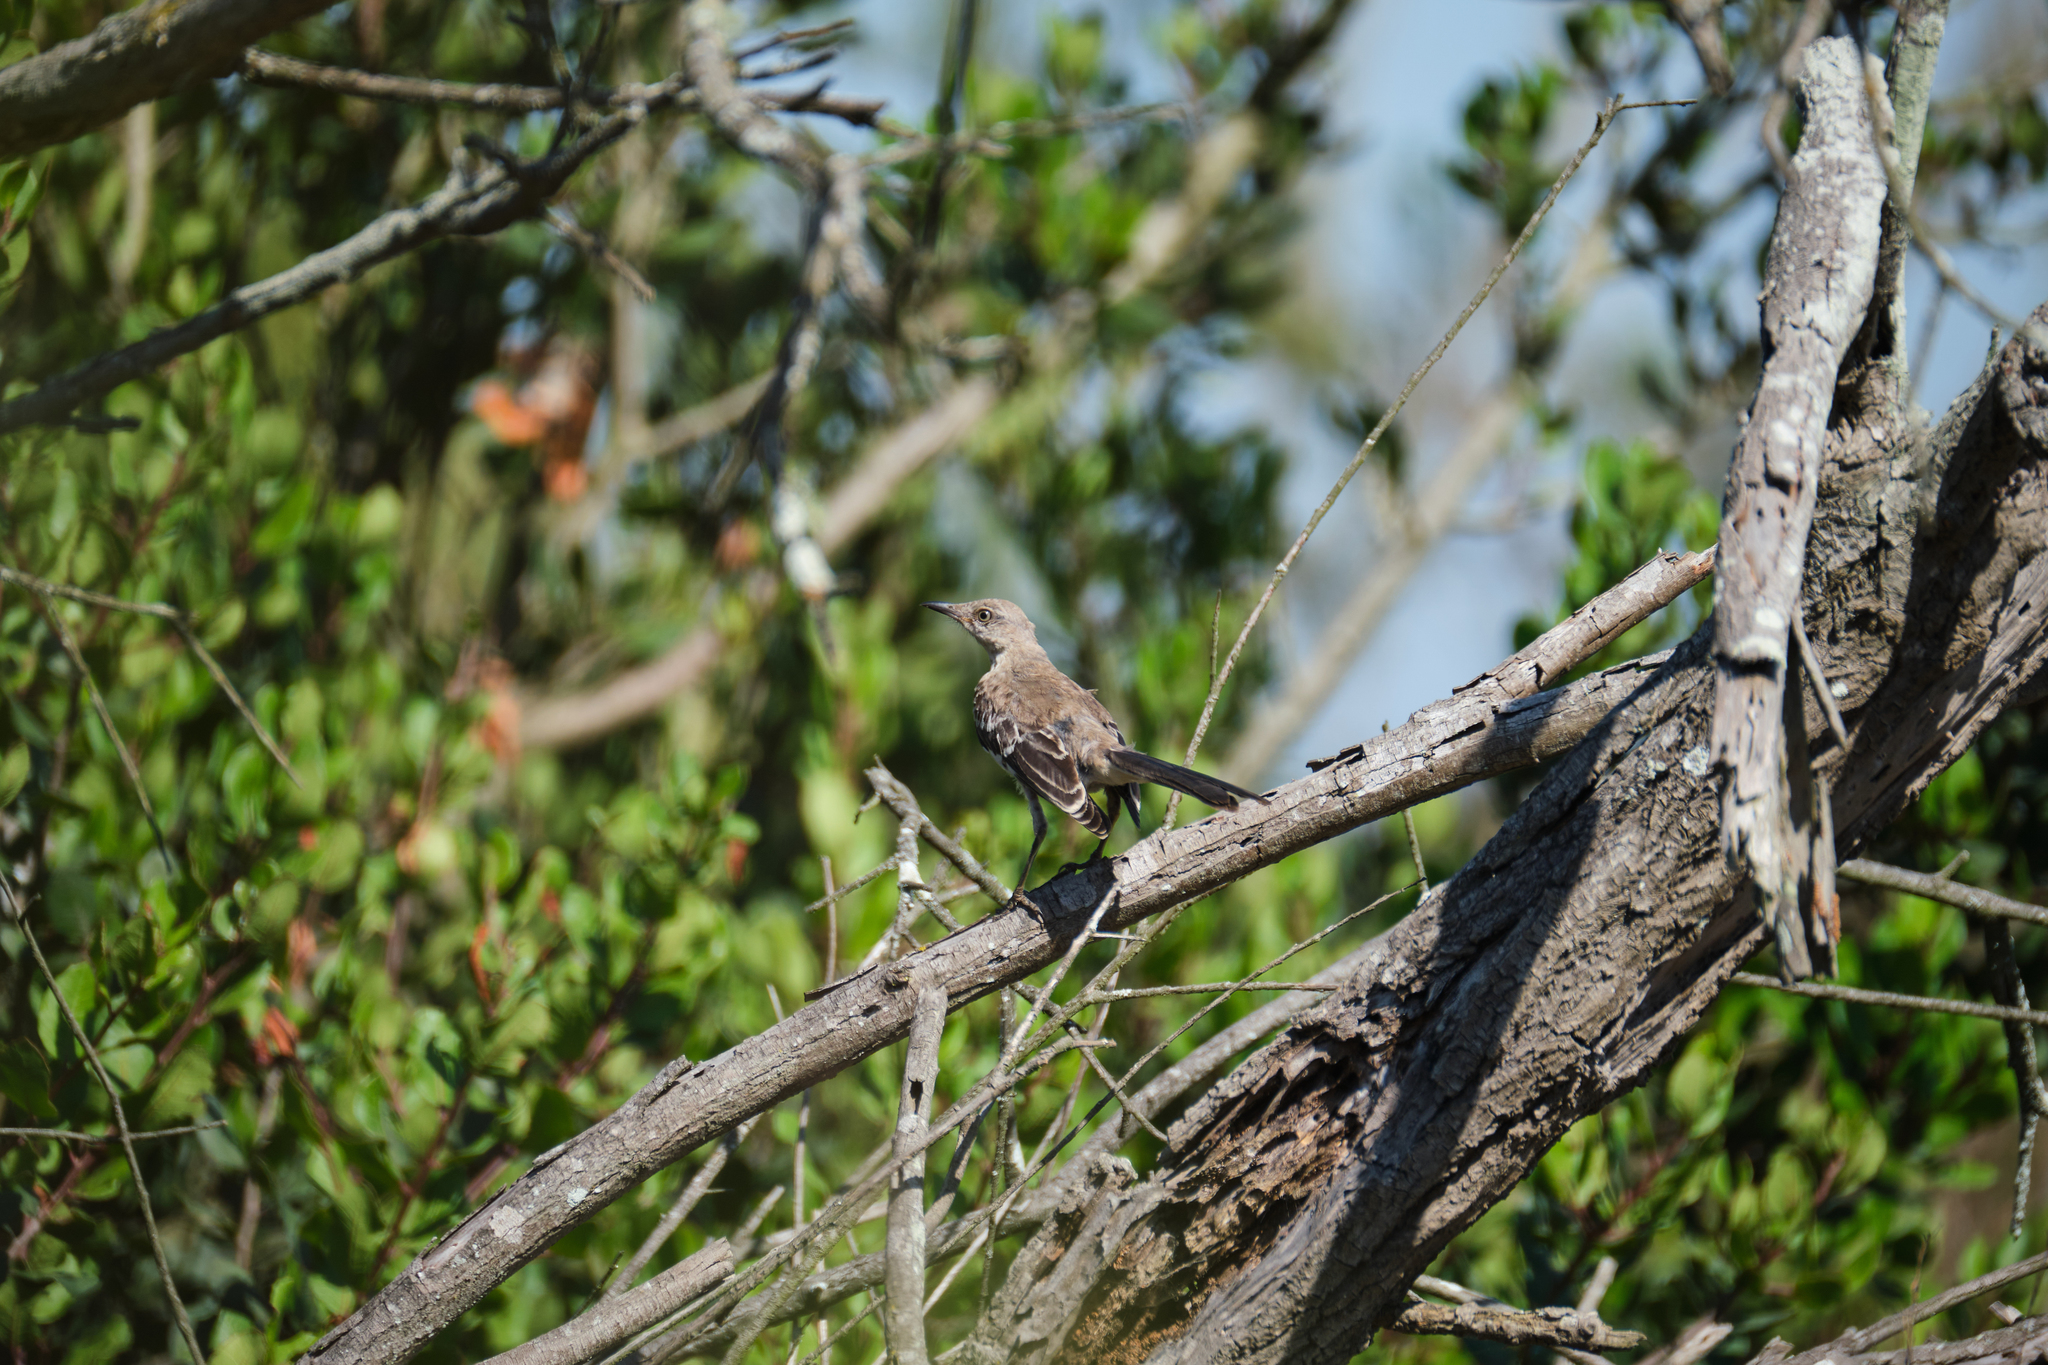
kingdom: Animalia
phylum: Chordata
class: Aves
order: Passeriformes
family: Mimidae
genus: Mimus
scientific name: Mimus polyglottos
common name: Northern mockingbird
